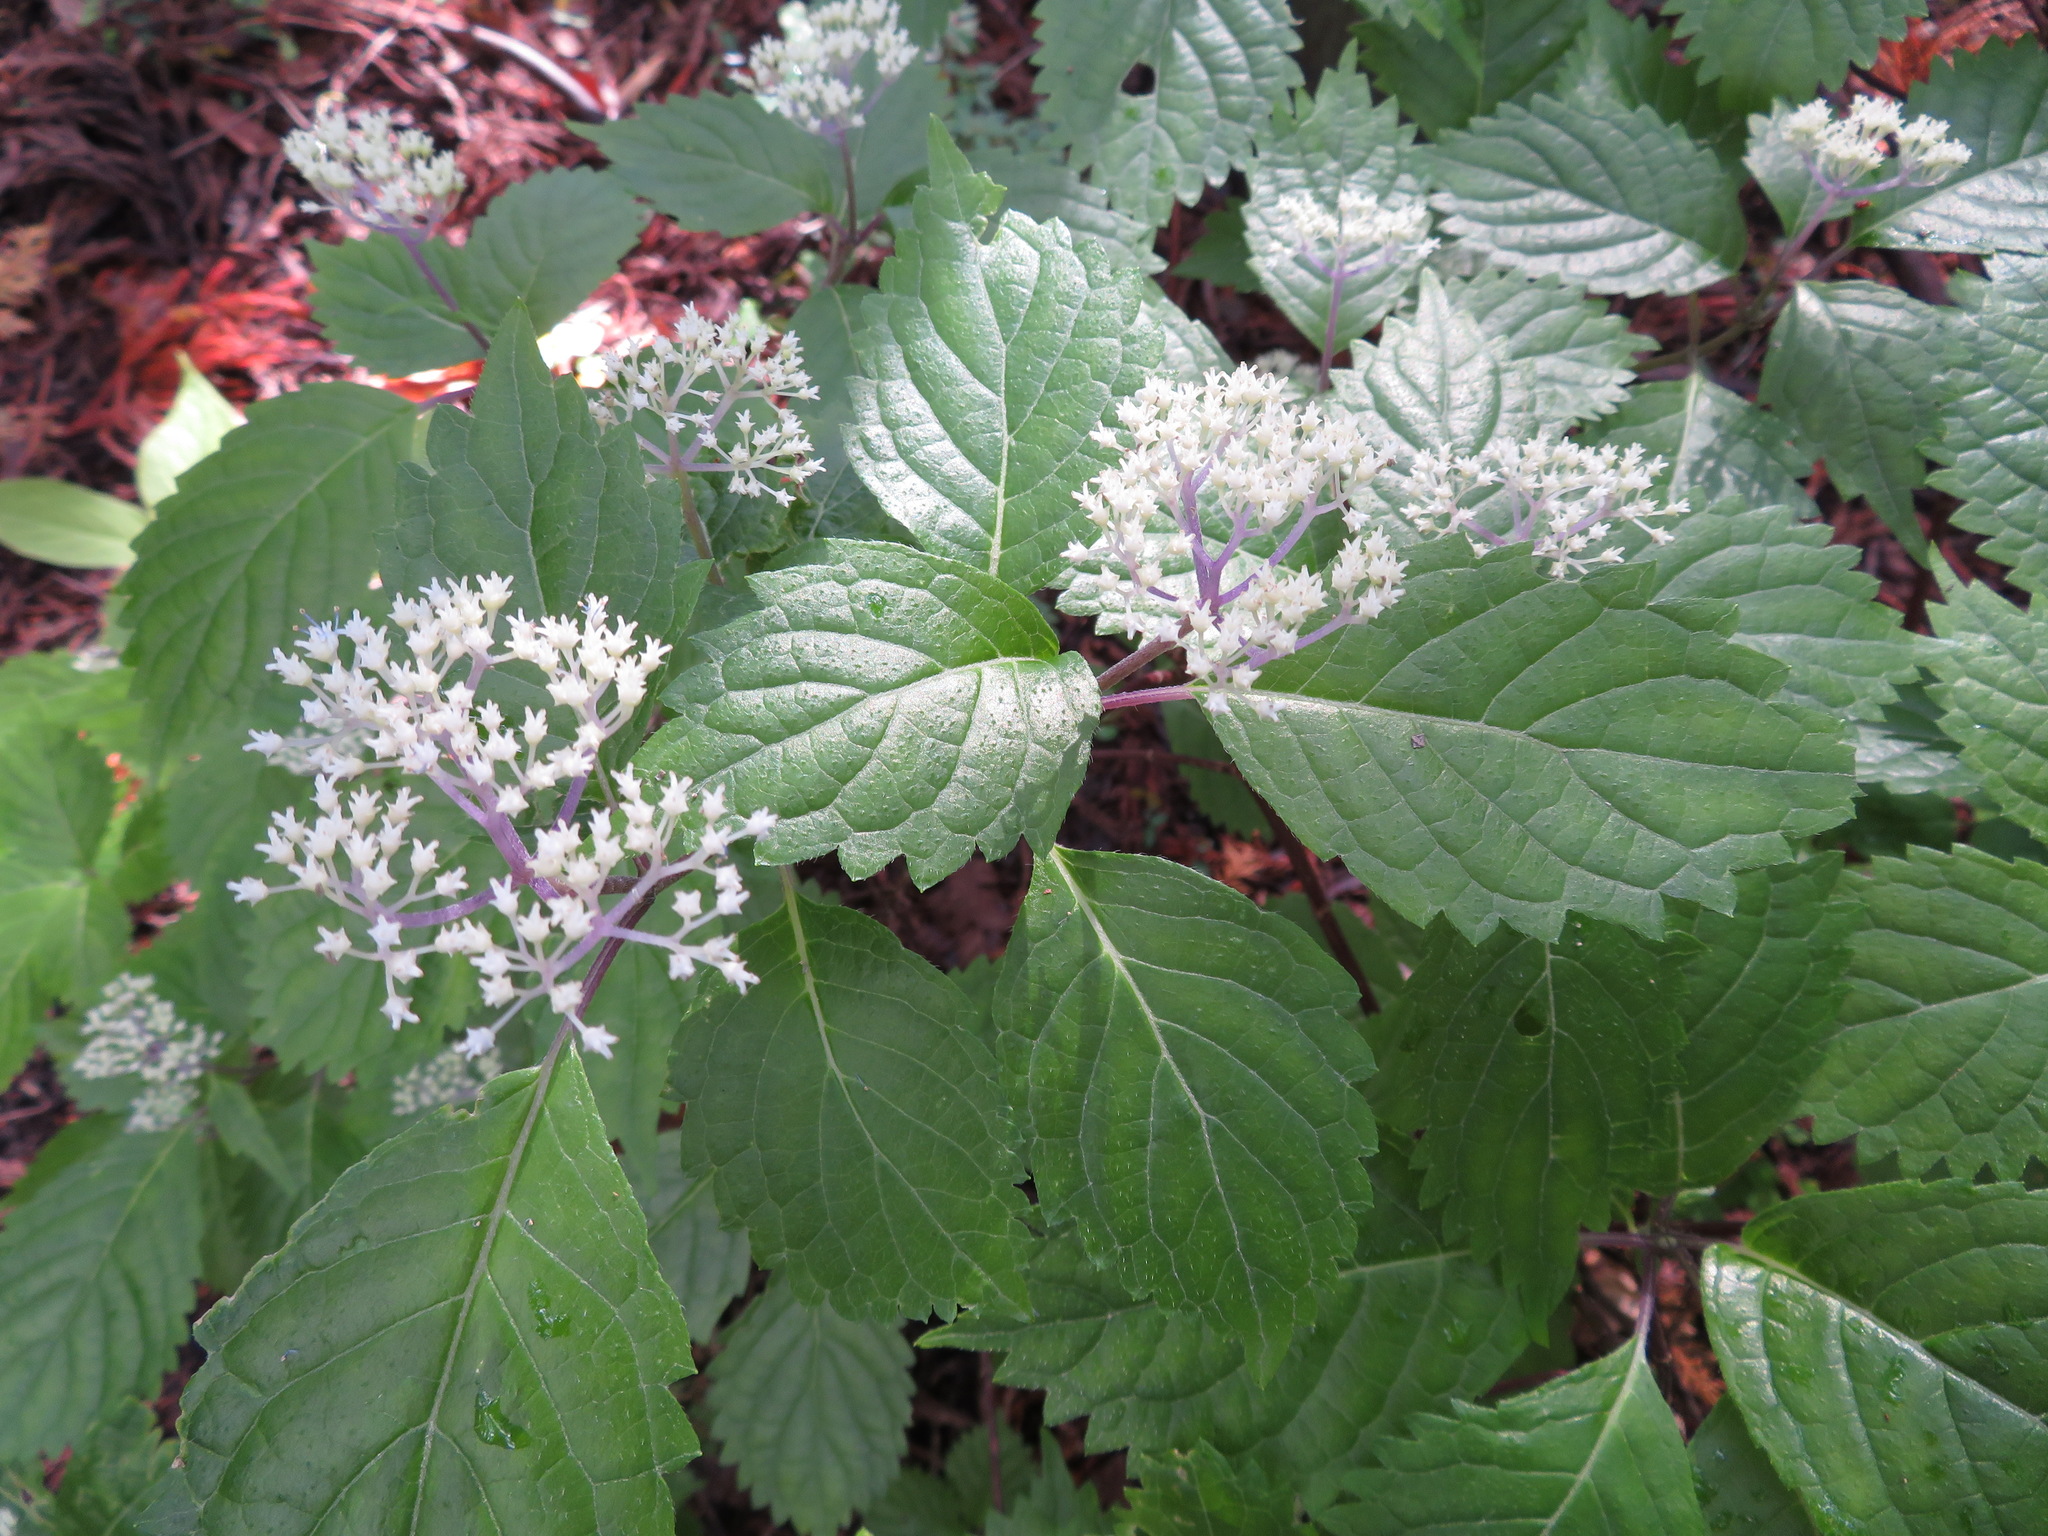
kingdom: Plantae
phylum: Tracheophyta
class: Magnoliopsida
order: Cornales
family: Hydrangeaceae
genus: Hydrangea
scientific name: Hydrangea hirta
